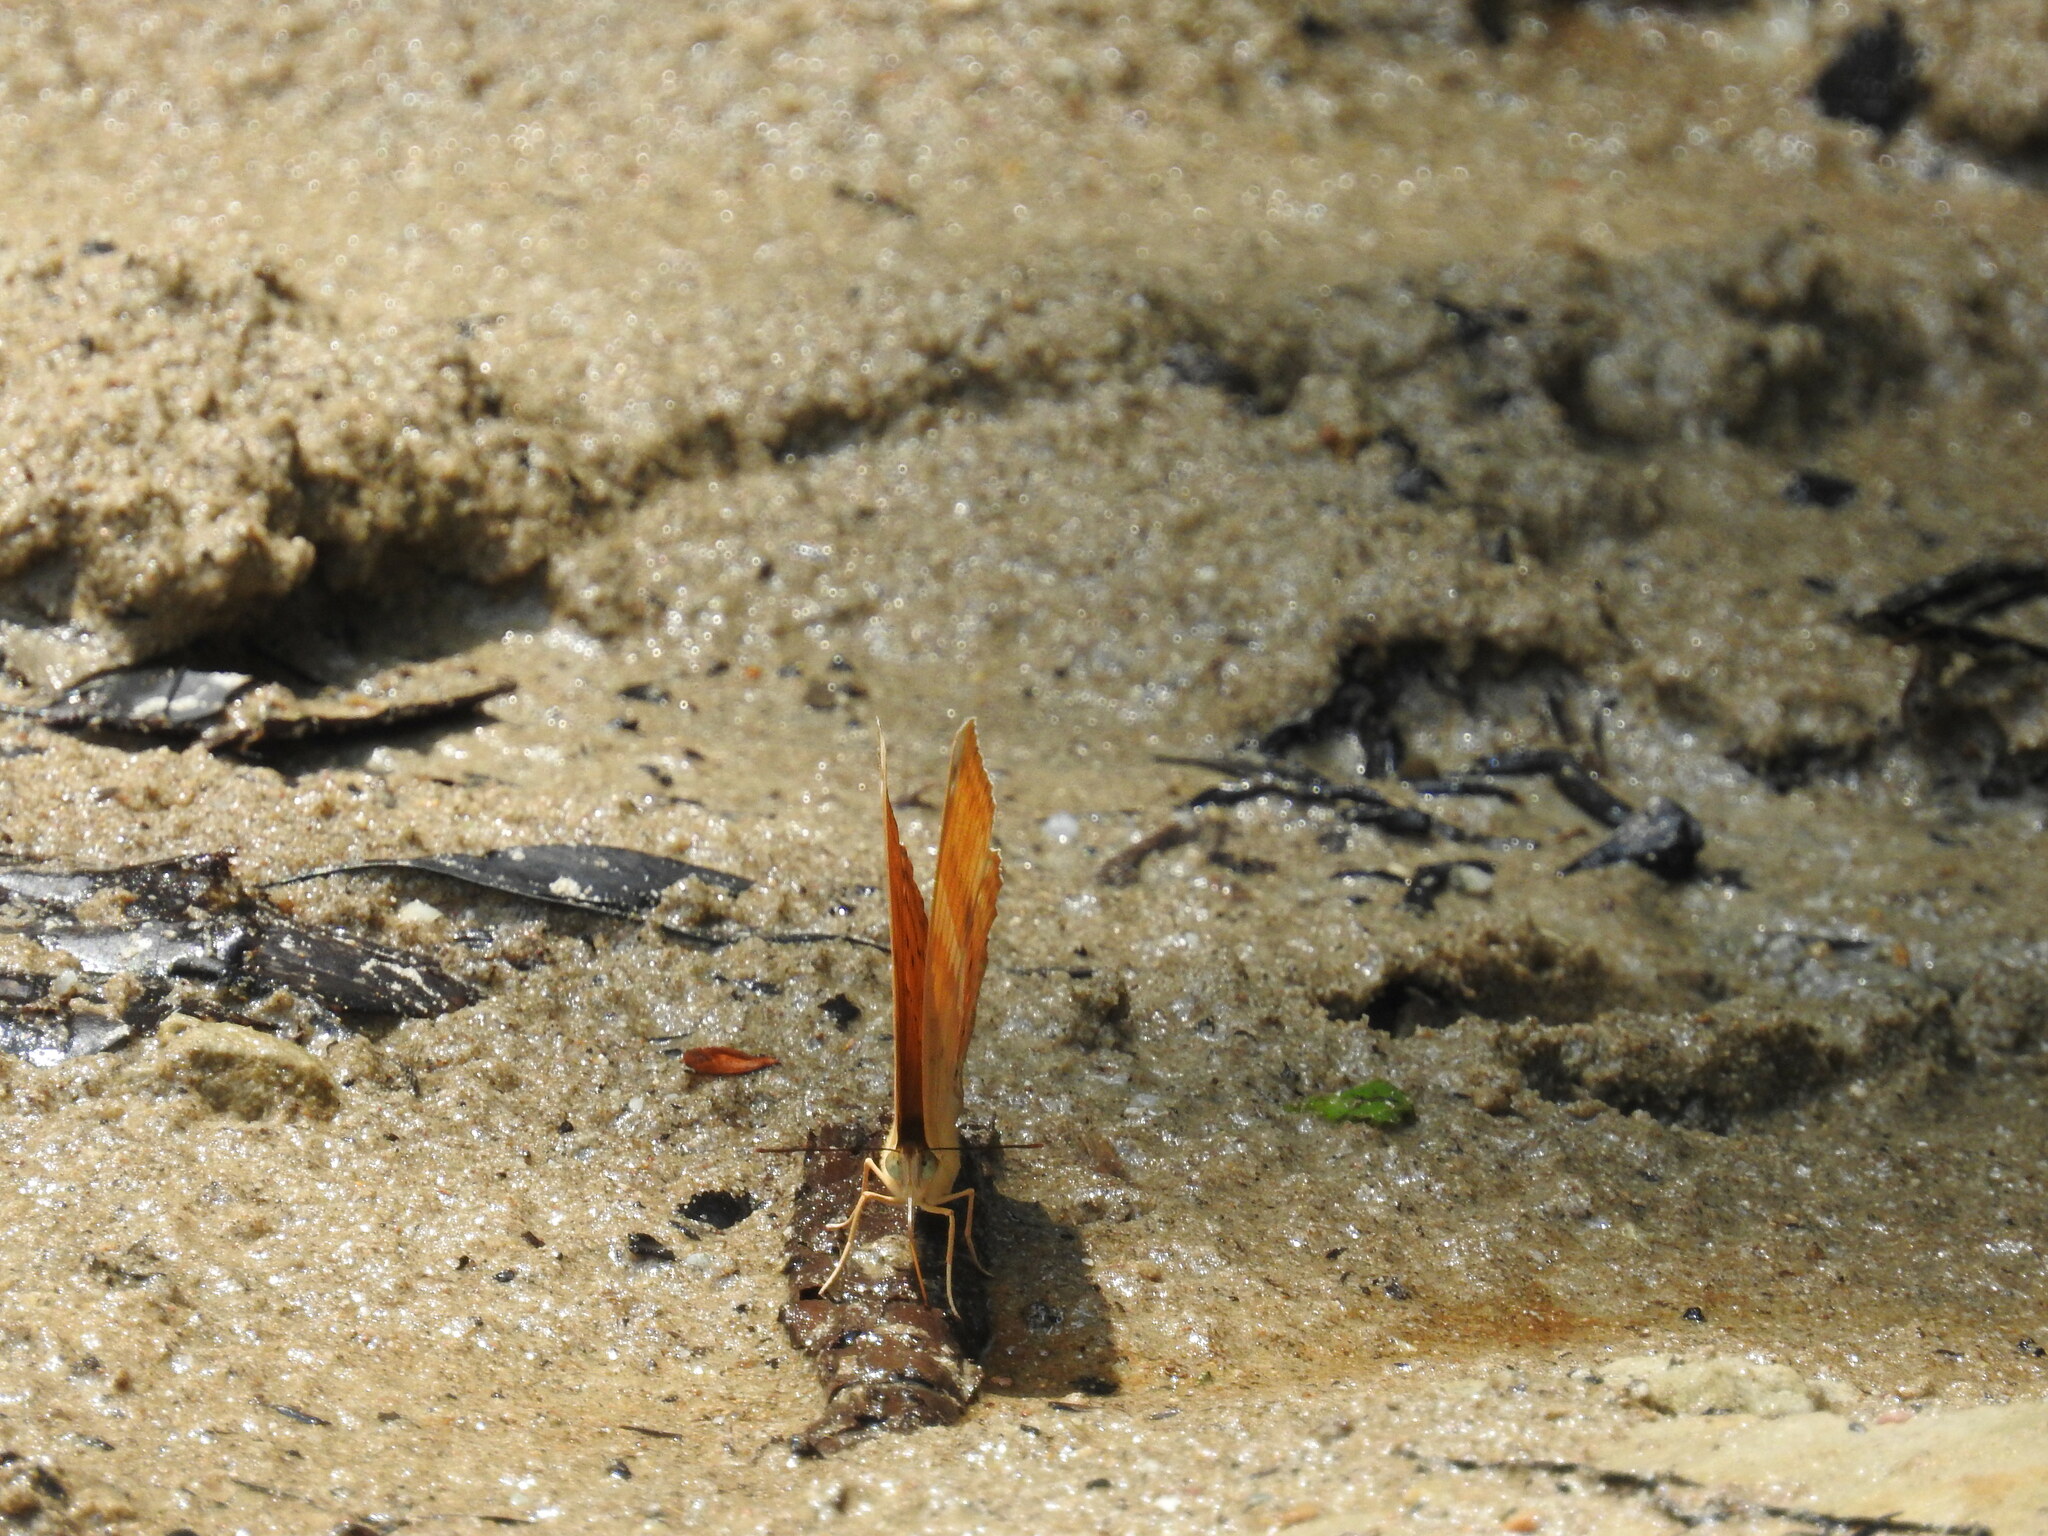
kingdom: Animalia
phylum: Arthropoda
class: Insecta
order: Lepidoptera
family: Nymphalidae
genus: Cirrochroa
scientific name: Cirrochroa aoris
